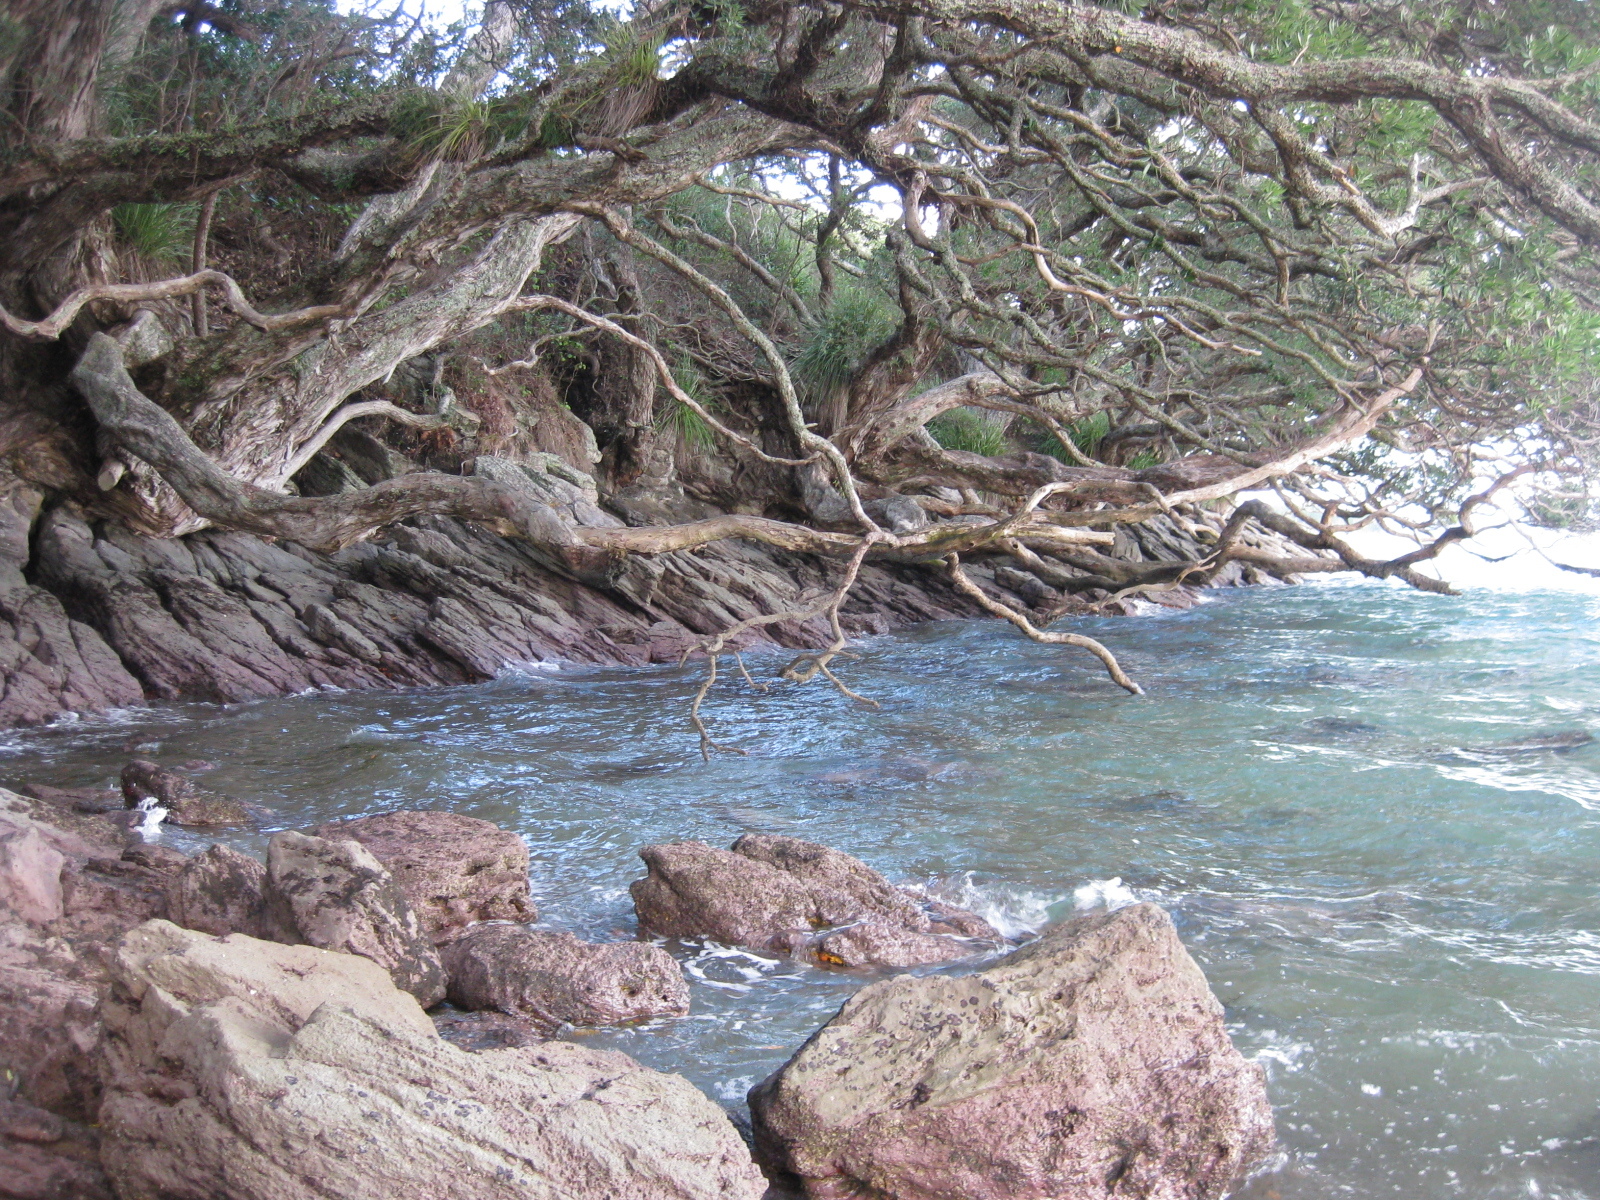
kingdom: Plantae
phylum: Tracheophyta
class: Magnoliopsida
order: Myrtales
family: Myrtaceae
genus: Metrosideros
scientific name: Metrosideros excelsa
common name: New zealand christmastree
